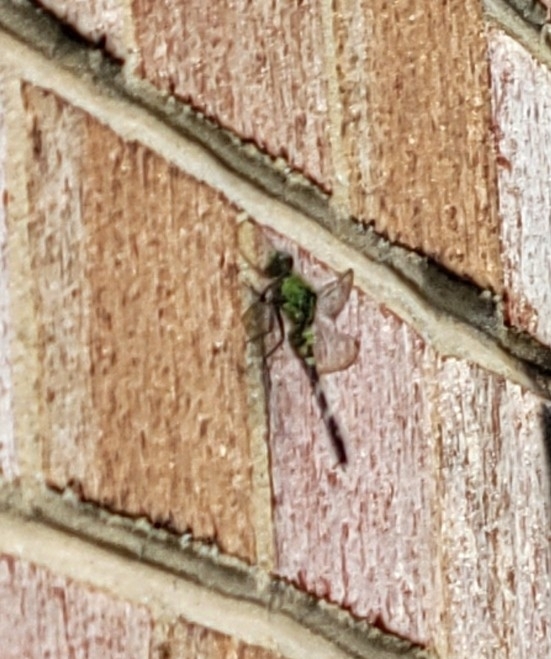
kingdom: Animalia
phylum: Arthropoda
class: Insecta
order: Odonata
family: Libellulidae
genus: Erythemis
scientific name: Erythemis simplicicollis
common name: Eastern pondhawk
